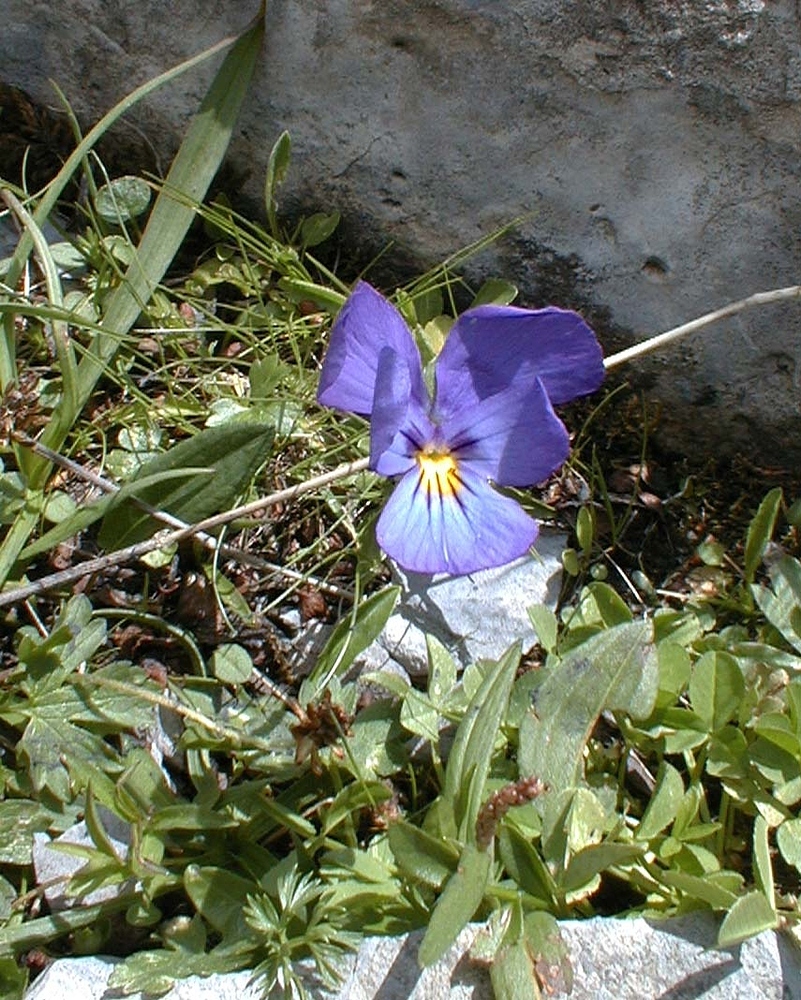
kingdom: Plantae
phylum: Tracheophyta
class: Magnoliopsida
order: Malpighiales
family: Violaceae
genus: Viola
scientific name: Viola calcarata
